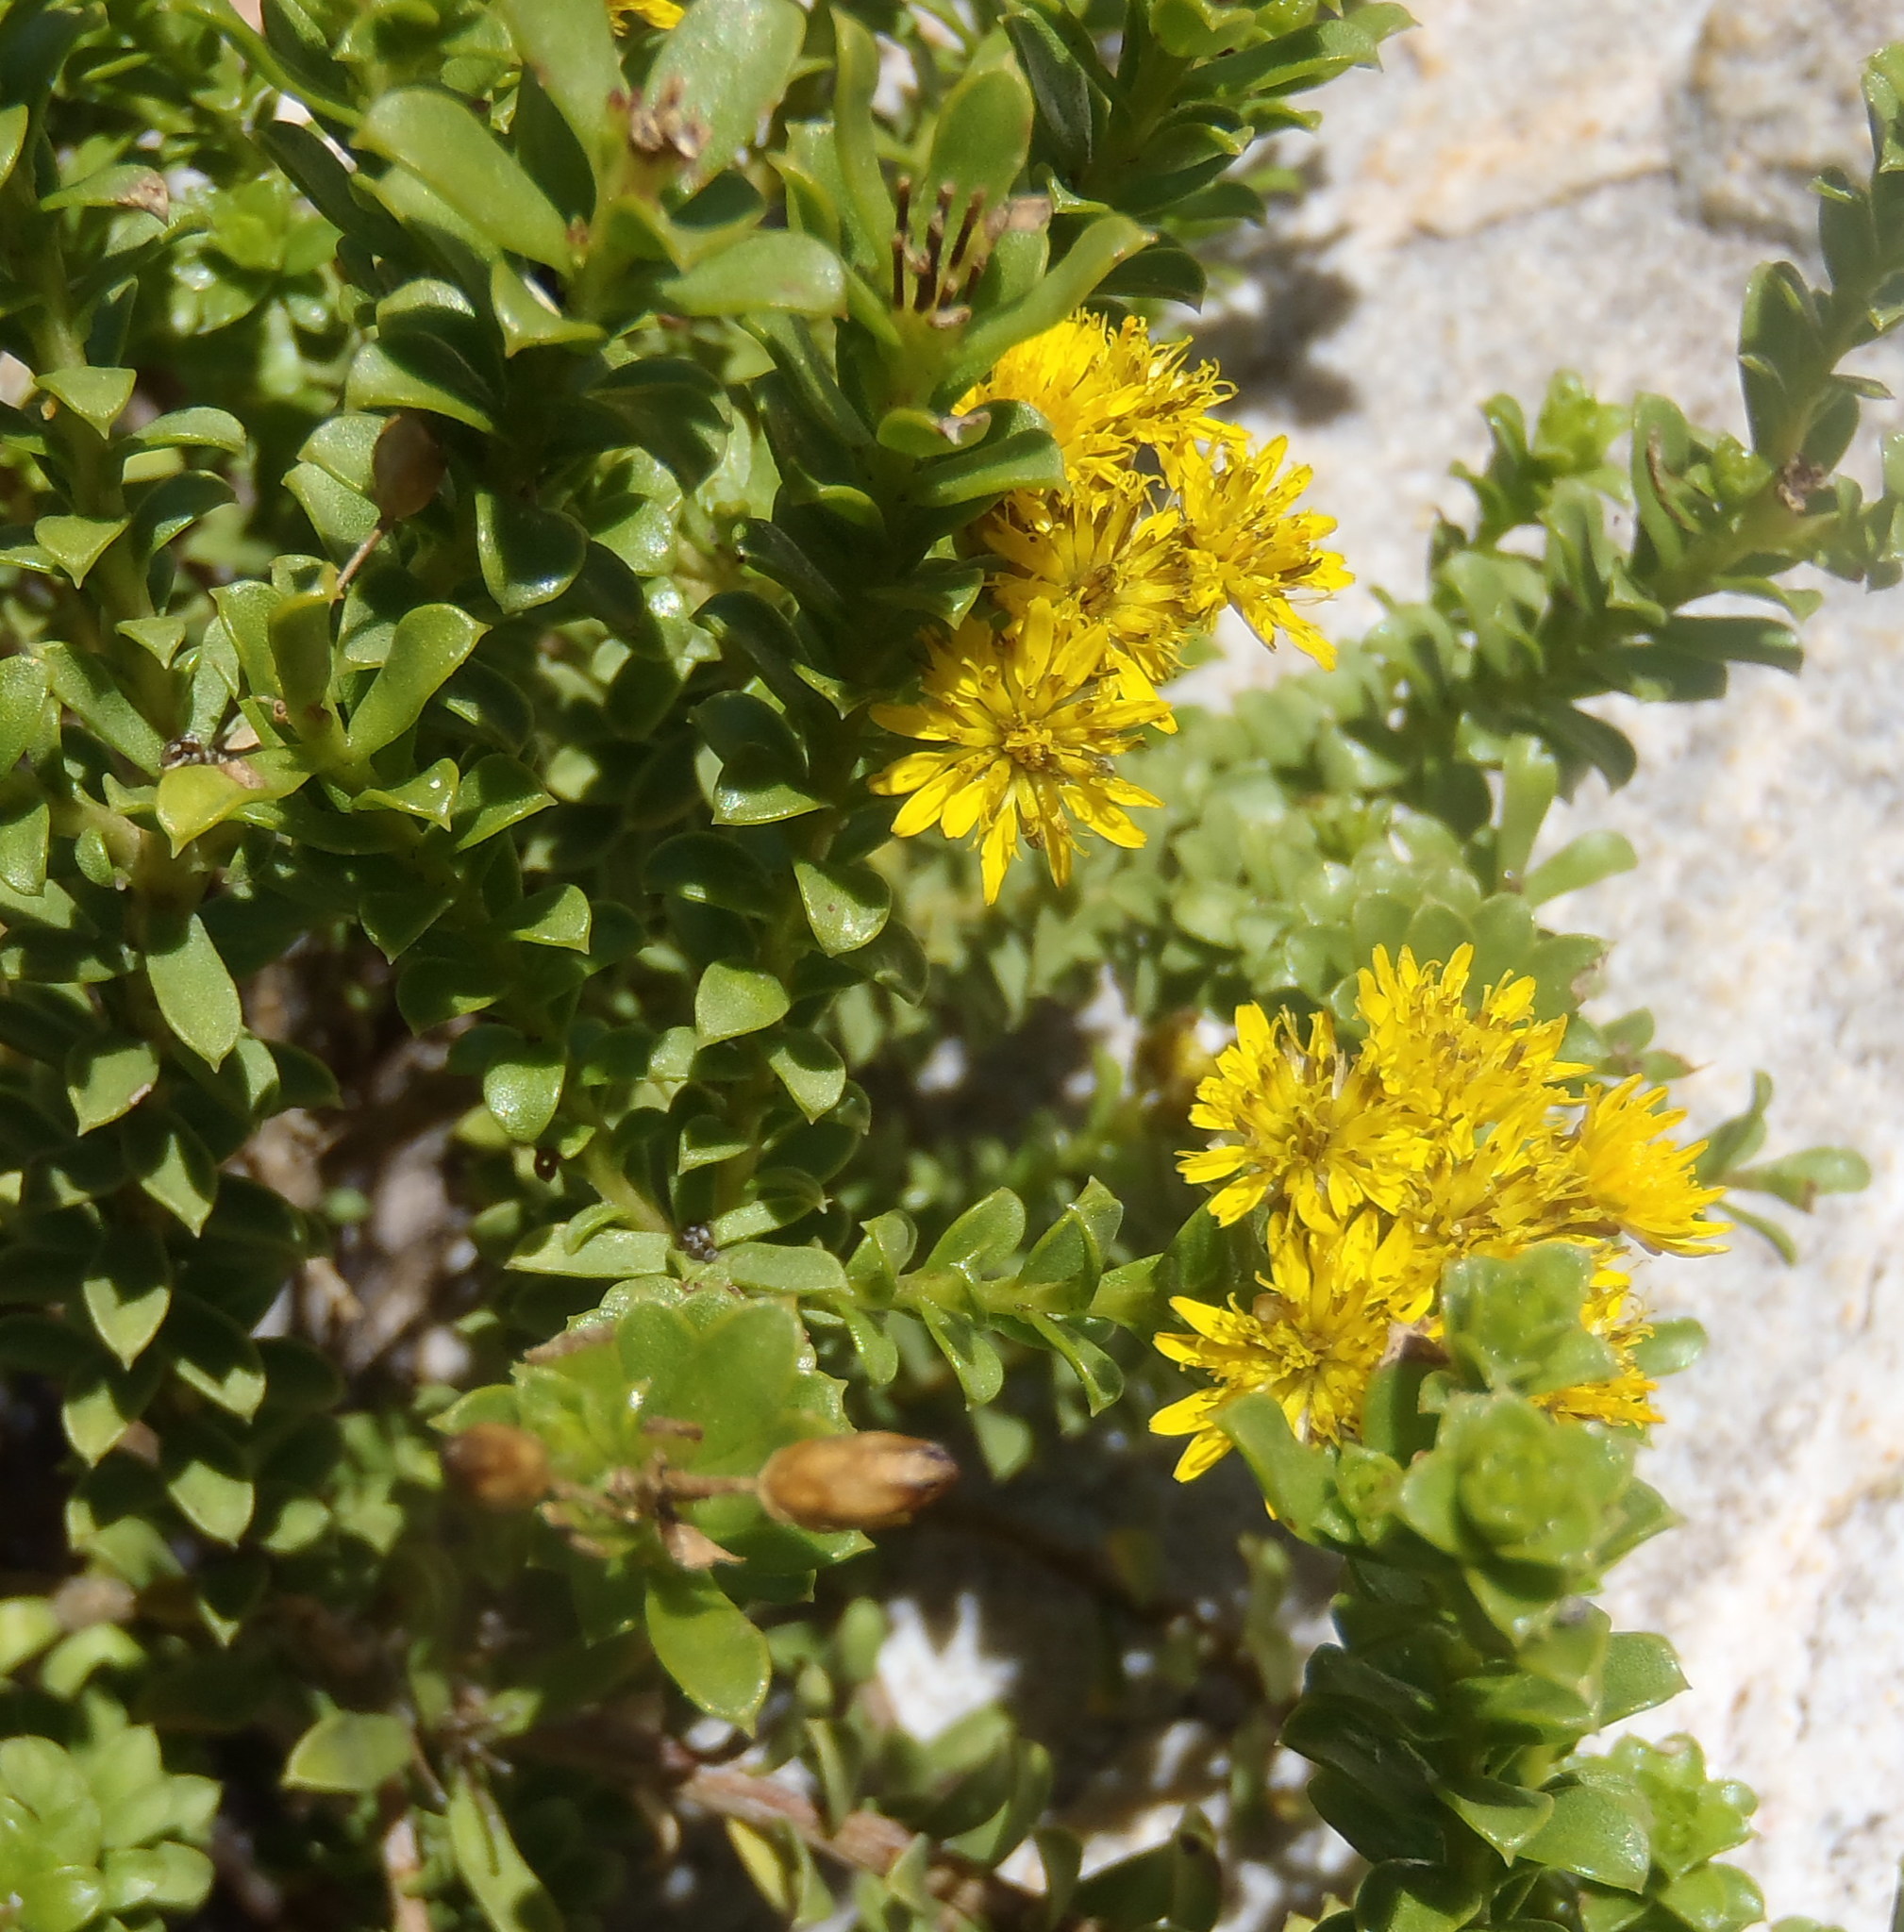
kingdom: Plantae
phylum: Tracheophyta
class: Magnoliopsida
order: Asterales
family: Asteraceae
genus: Oedera
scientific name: Oedera squarrosa
